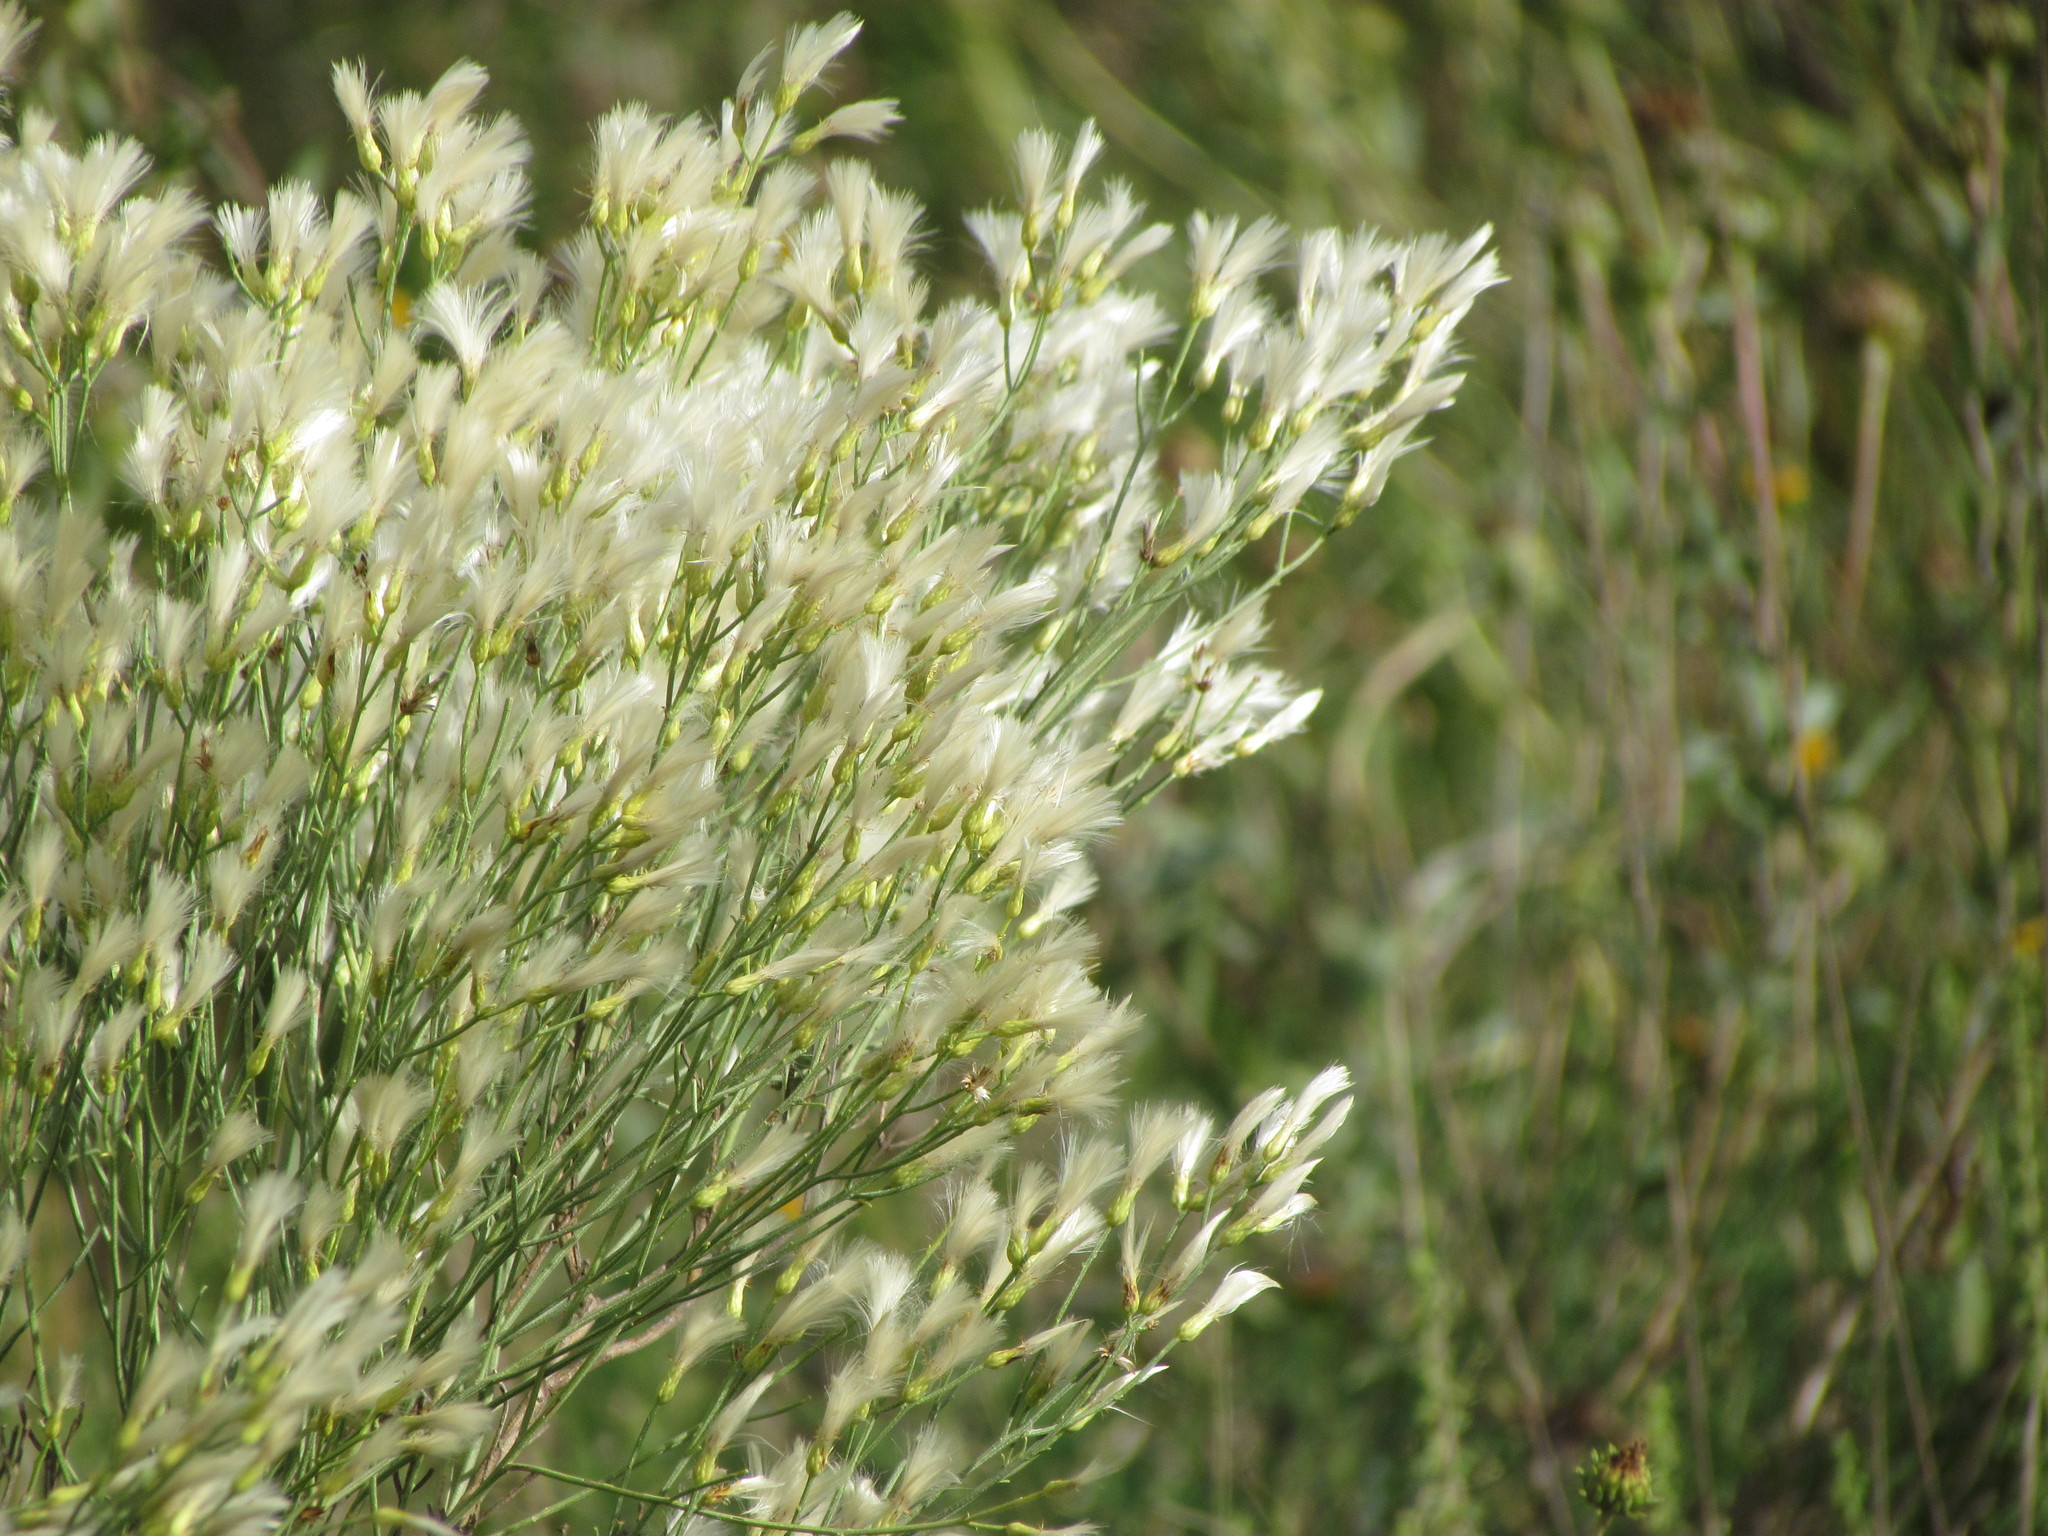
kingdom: Plantae
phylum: Tracheophyta
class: Magnoliopsida
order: Asterales
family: Asteraceae
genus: Baccharis
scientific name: Baccharis notosergila
